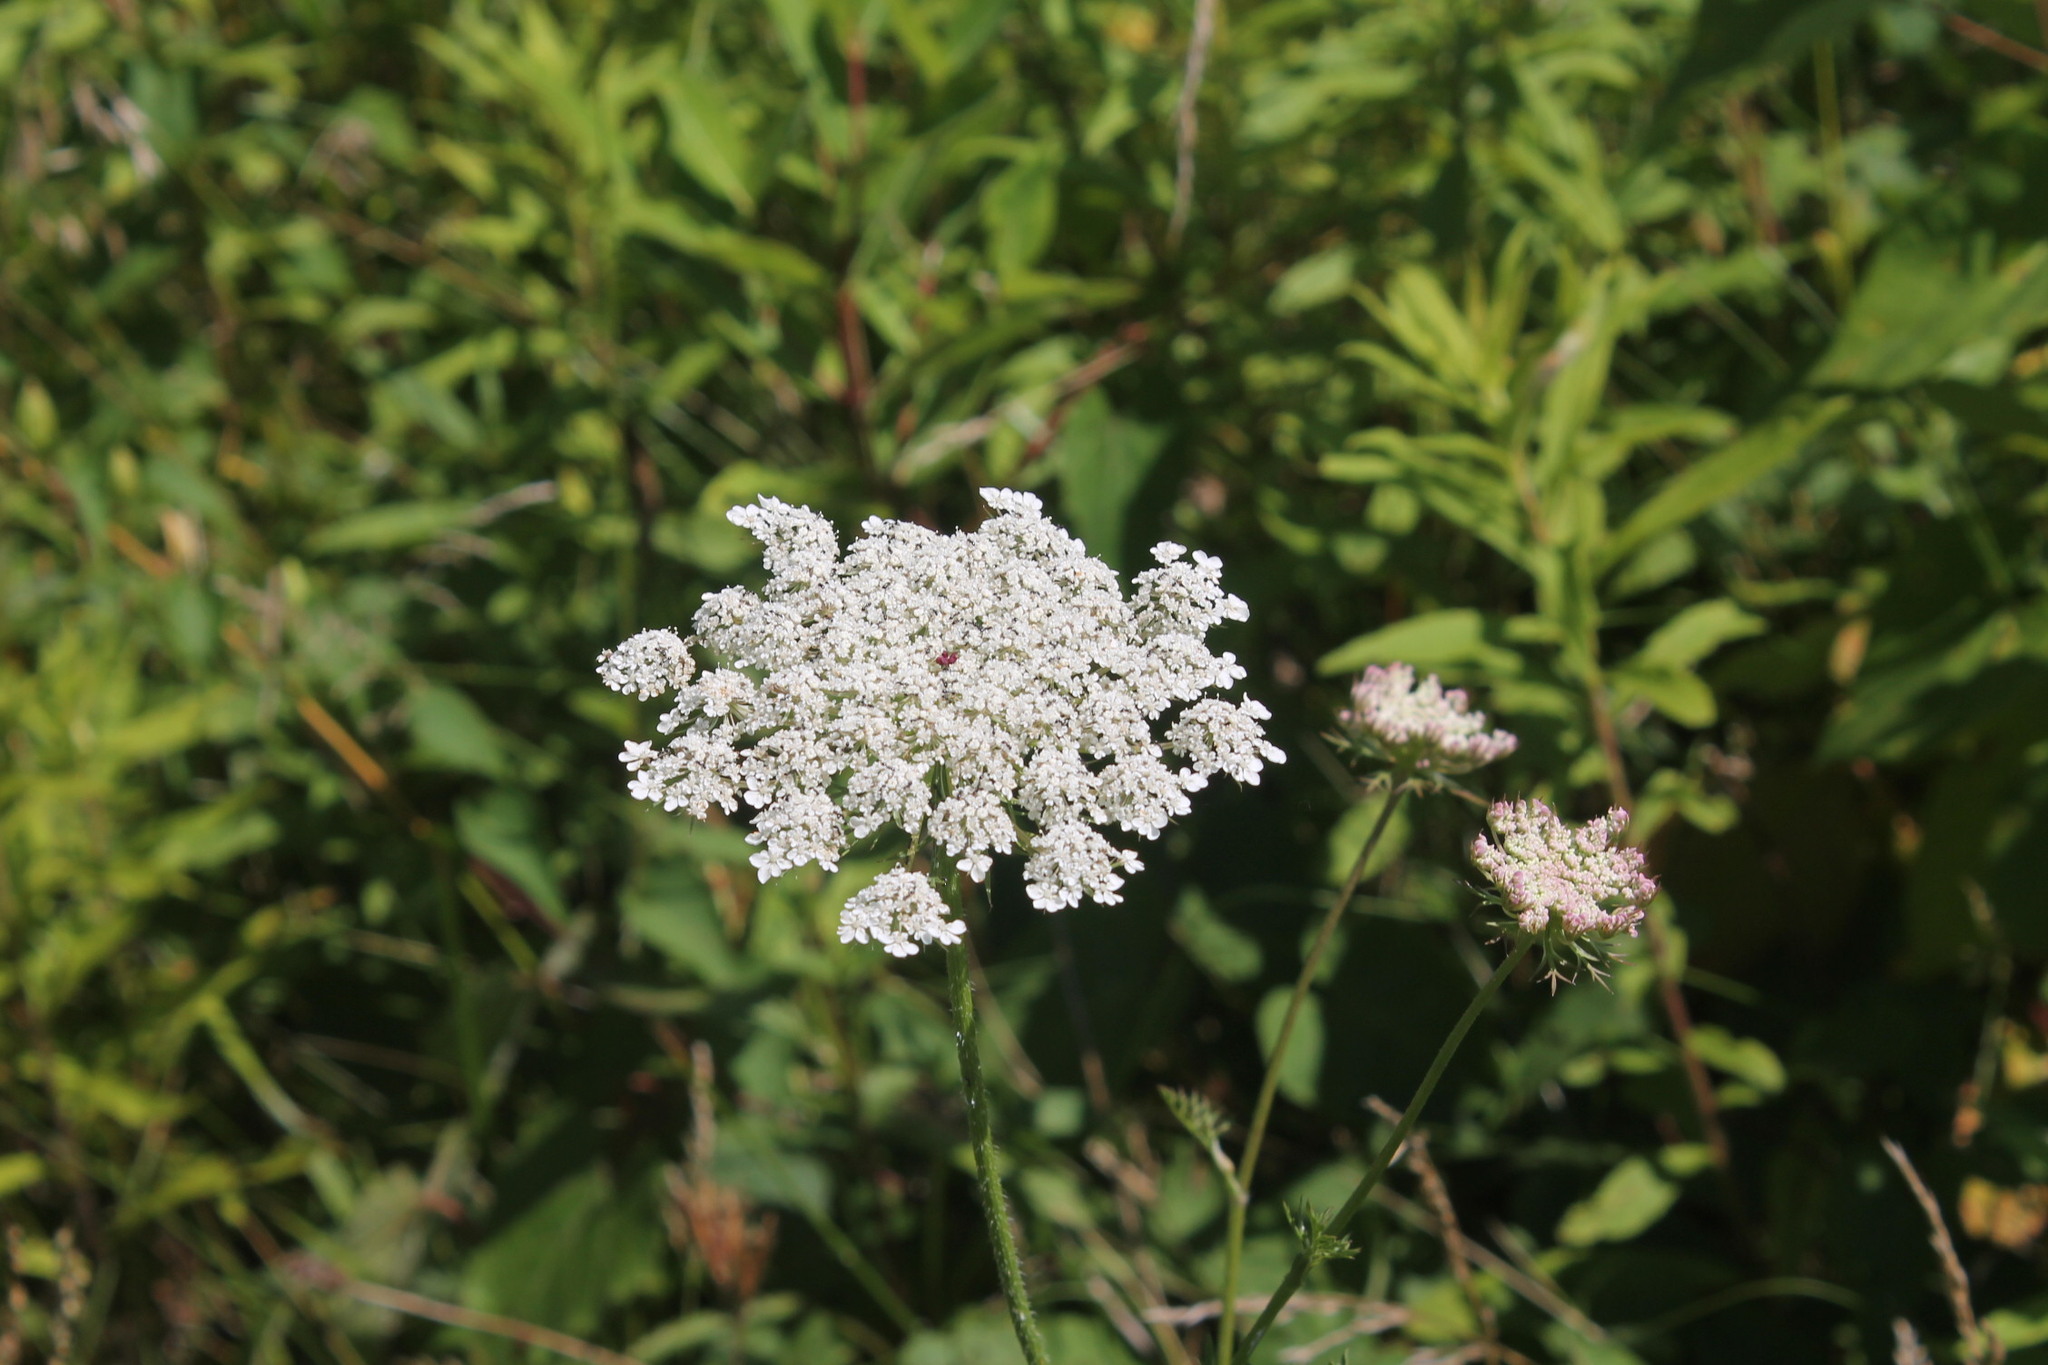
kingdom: Plantae
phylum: Tracheophyta
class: Magnoliopsida
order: Apiales
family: Apiaceae
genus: Daucus
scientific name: Daucus carota
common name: Wild carrot
